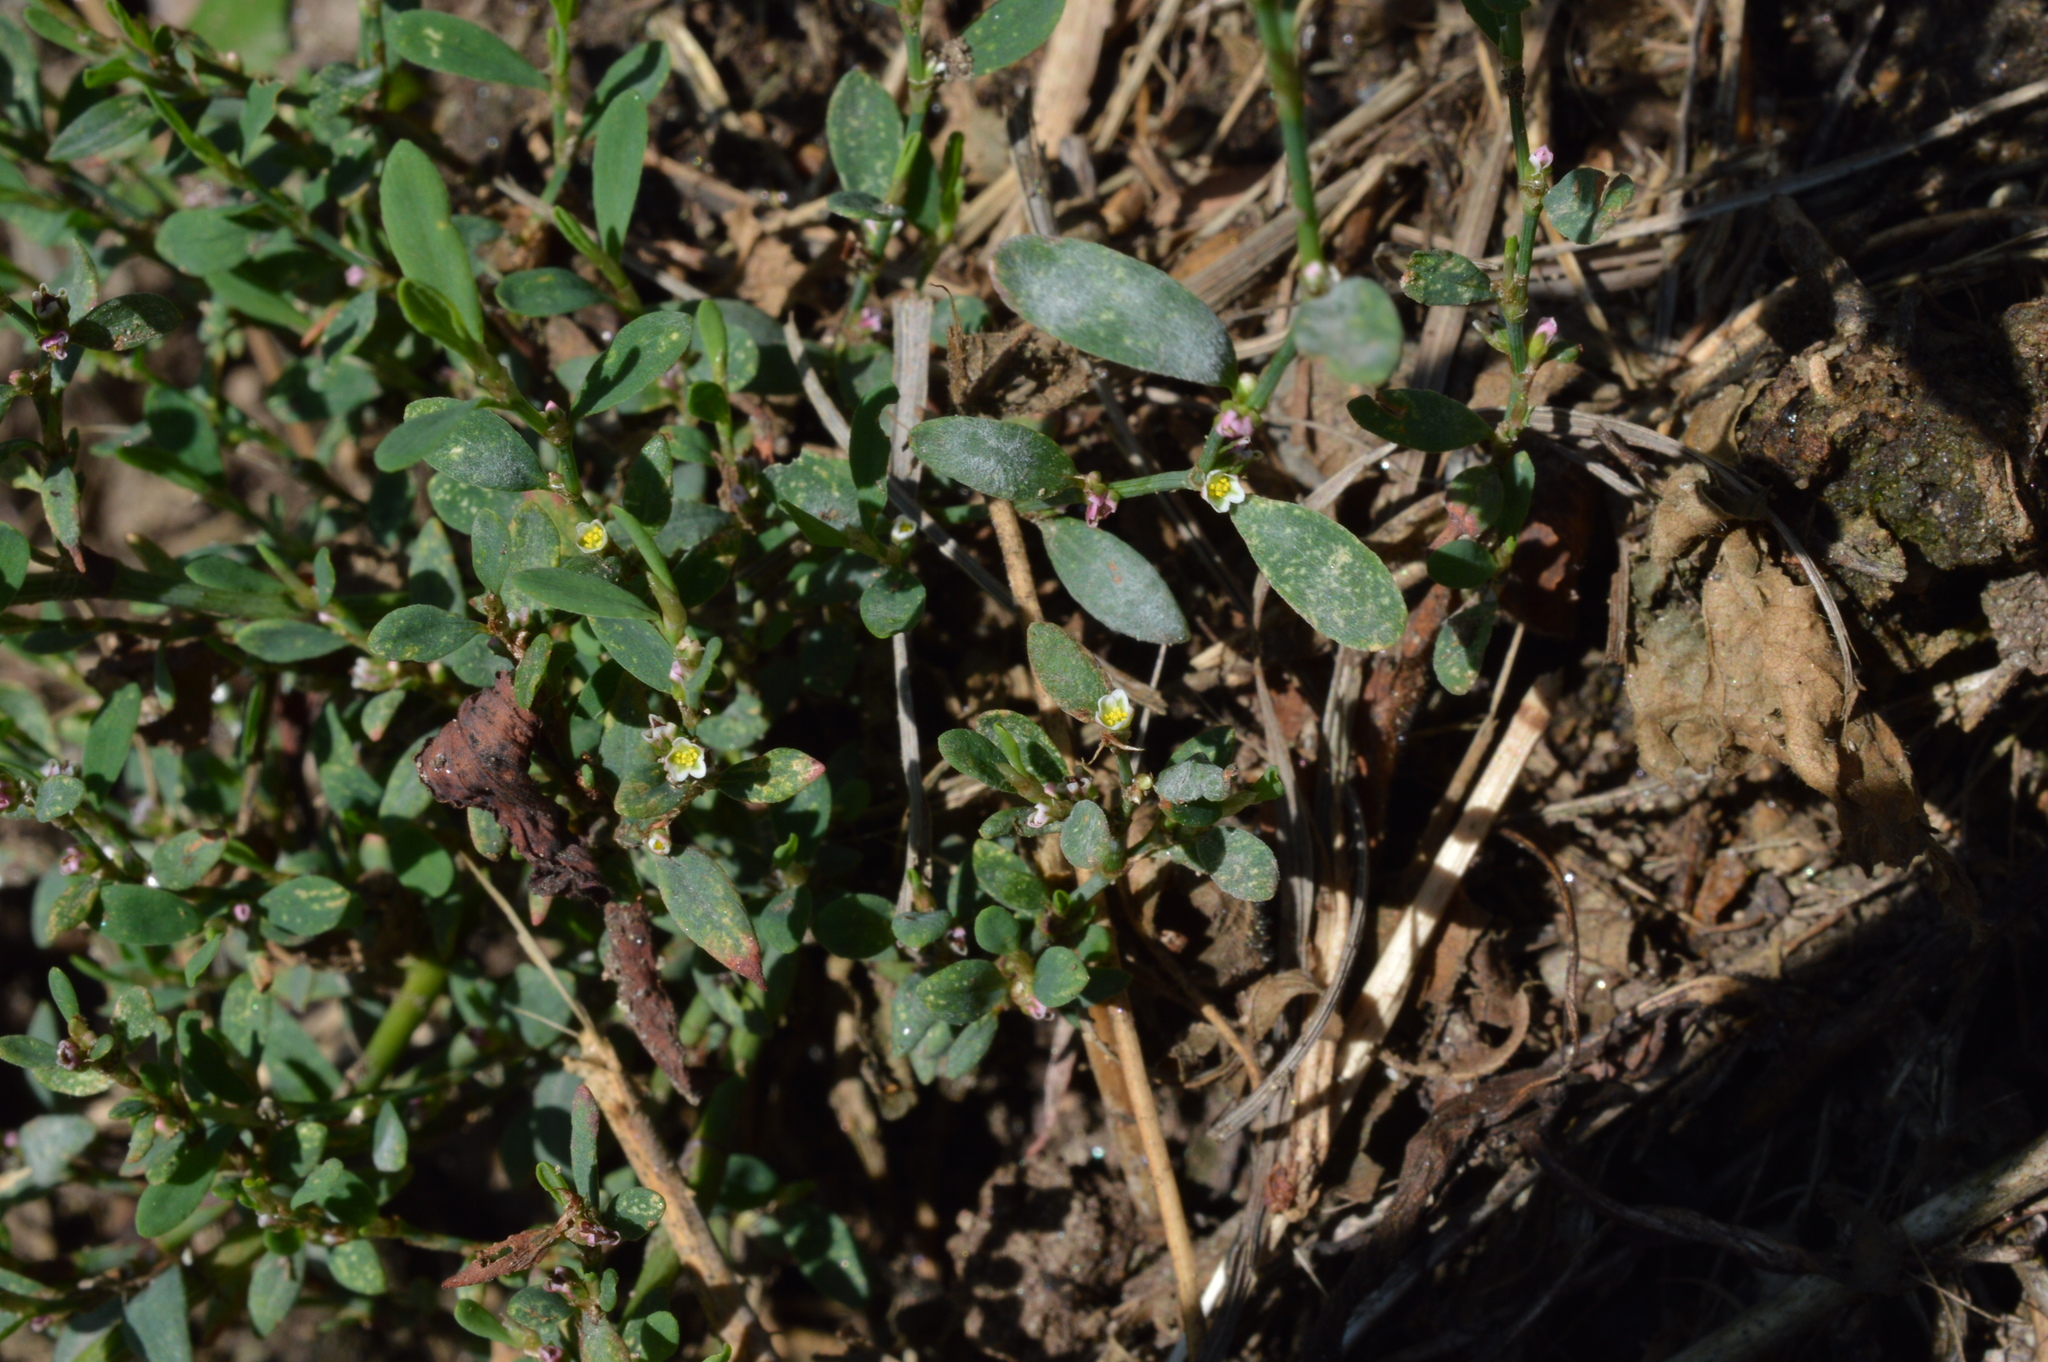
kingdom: Plantae
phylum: Tracheophyta
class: Magnoliopsida
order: Caryophyllales
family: Polygonaceae
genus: Polygonum
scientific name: Polygonum aviculare
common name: Prostrate knotweed
